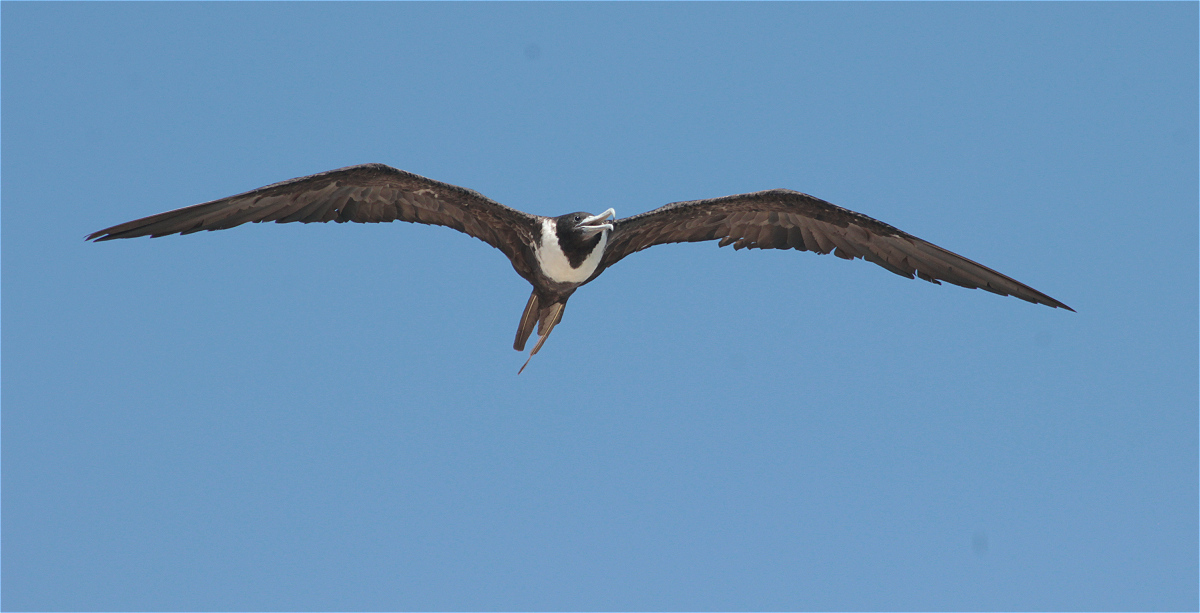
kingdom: Animalia
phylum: Chordata
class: Aves
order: Suliformes
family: Fregatidae
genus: Fregata
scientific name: Fregata magnificens
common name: Magnificent frigatebird
